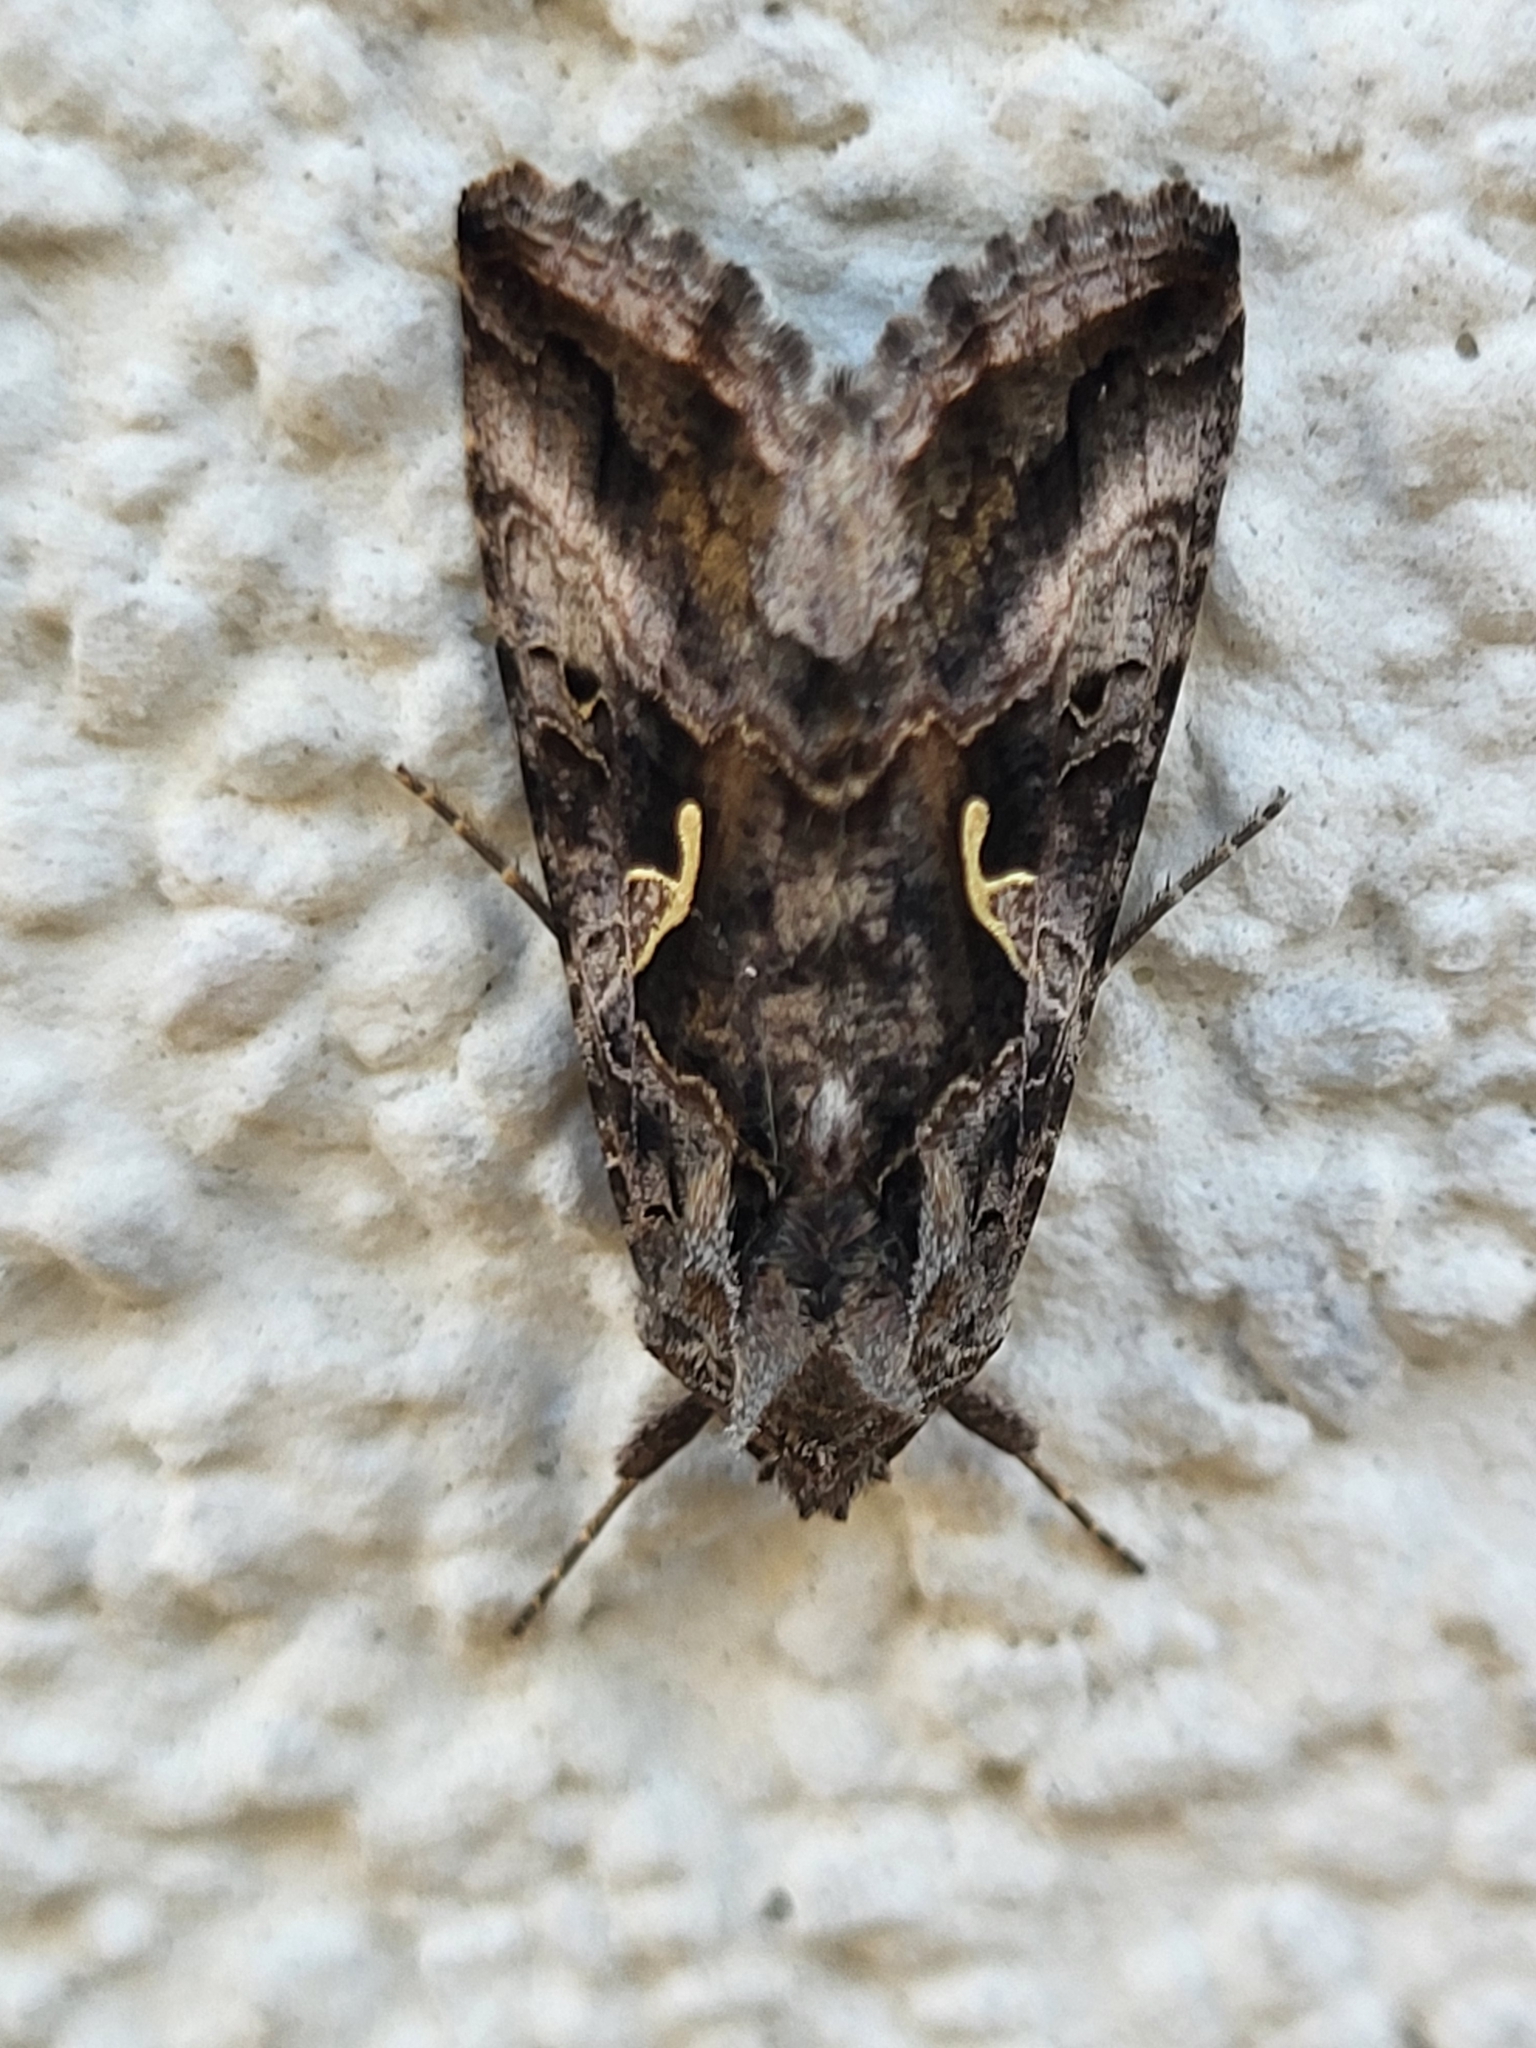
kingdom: Animalia
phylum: Arthropoda
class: Insecta
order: Lepidoptera
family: Noctuidae
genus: Autographa
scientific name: Autographa gamma
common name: Silver y
